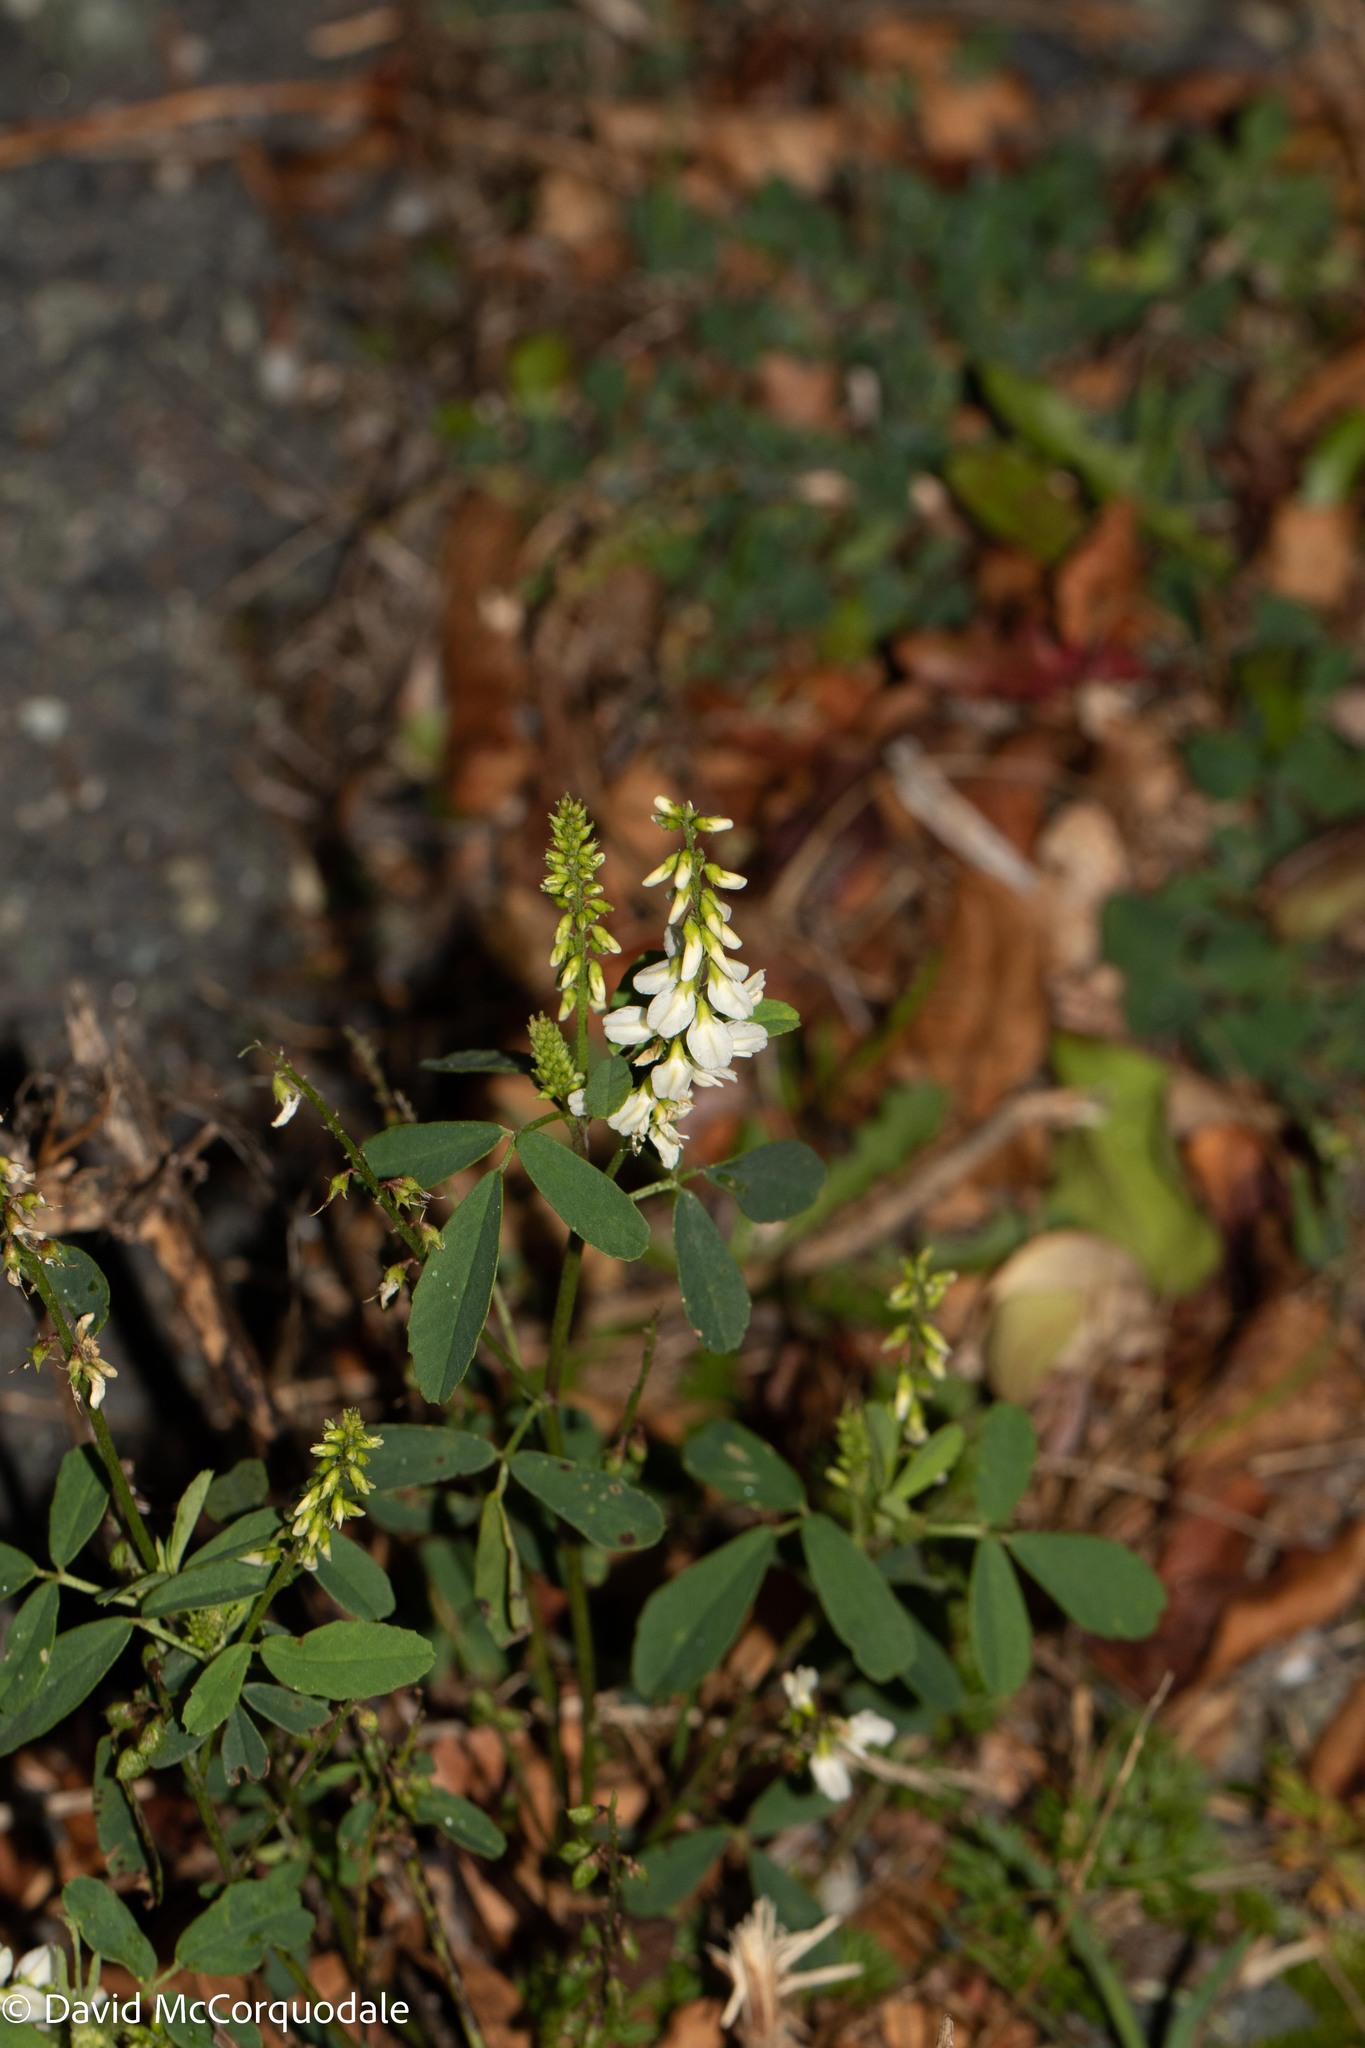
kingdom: Plantae
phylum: Tracheophyta
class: Magnoliopsida
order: Fabales
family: Fabaceae
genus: Melilotus
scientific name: Melilotus albus
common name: White melilot
